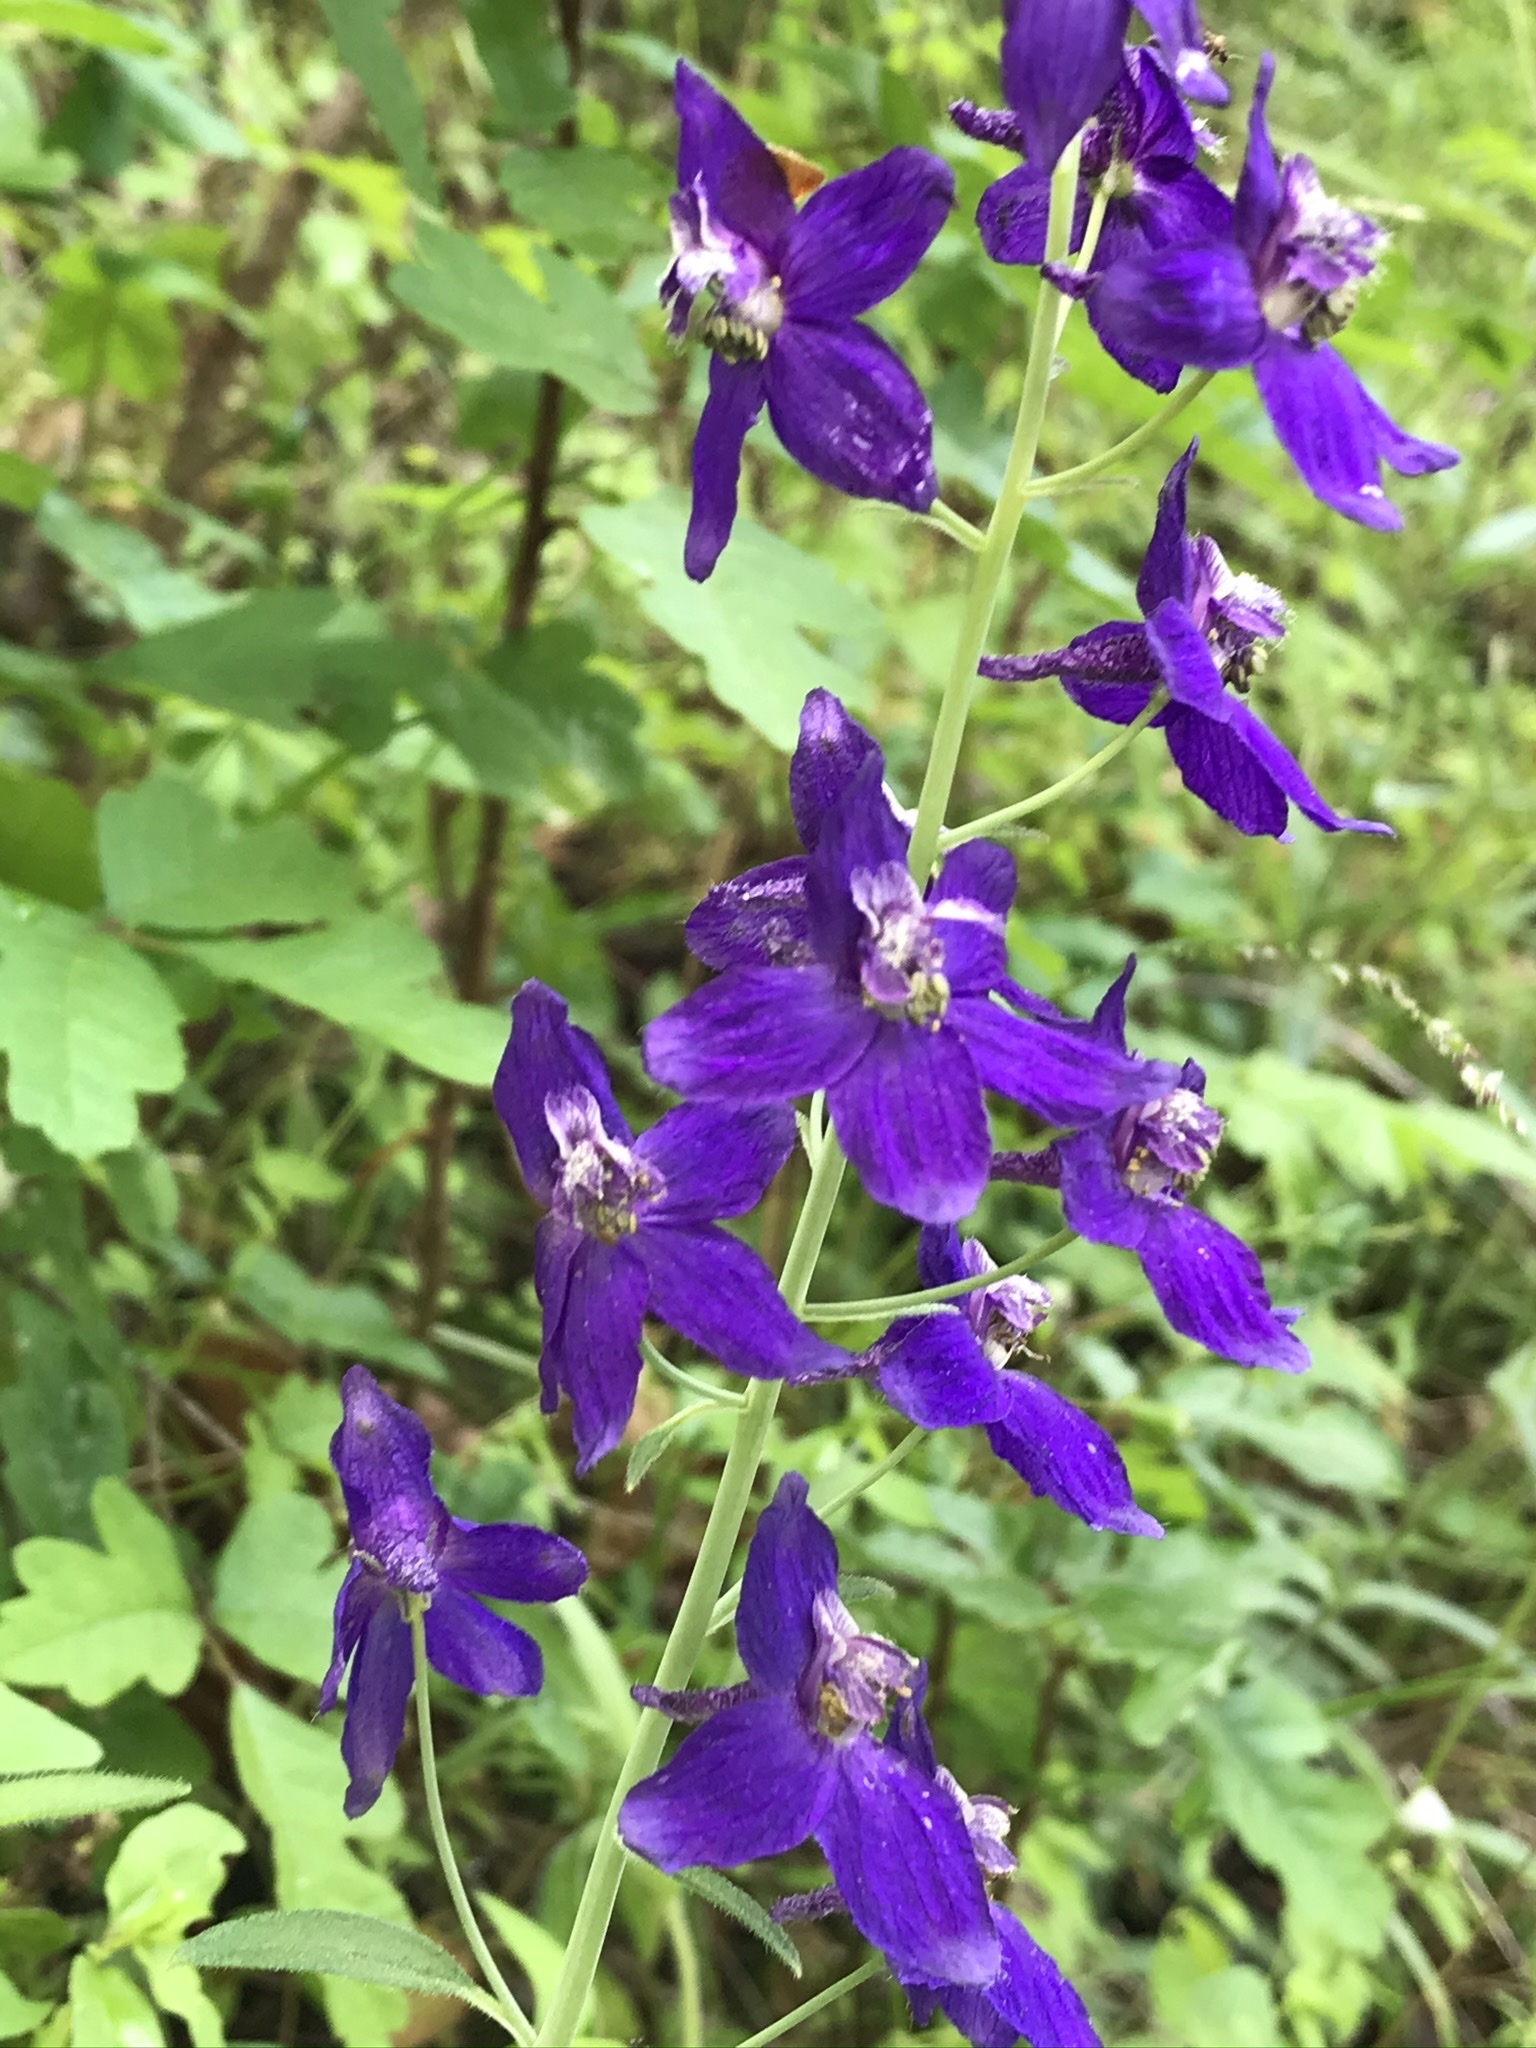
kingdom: Plantae
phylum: Tracheophyta
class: Magnoliopsida
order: Ranunculales
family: Ranunculaceae
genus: Delphinium
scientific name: Delphinium patens
